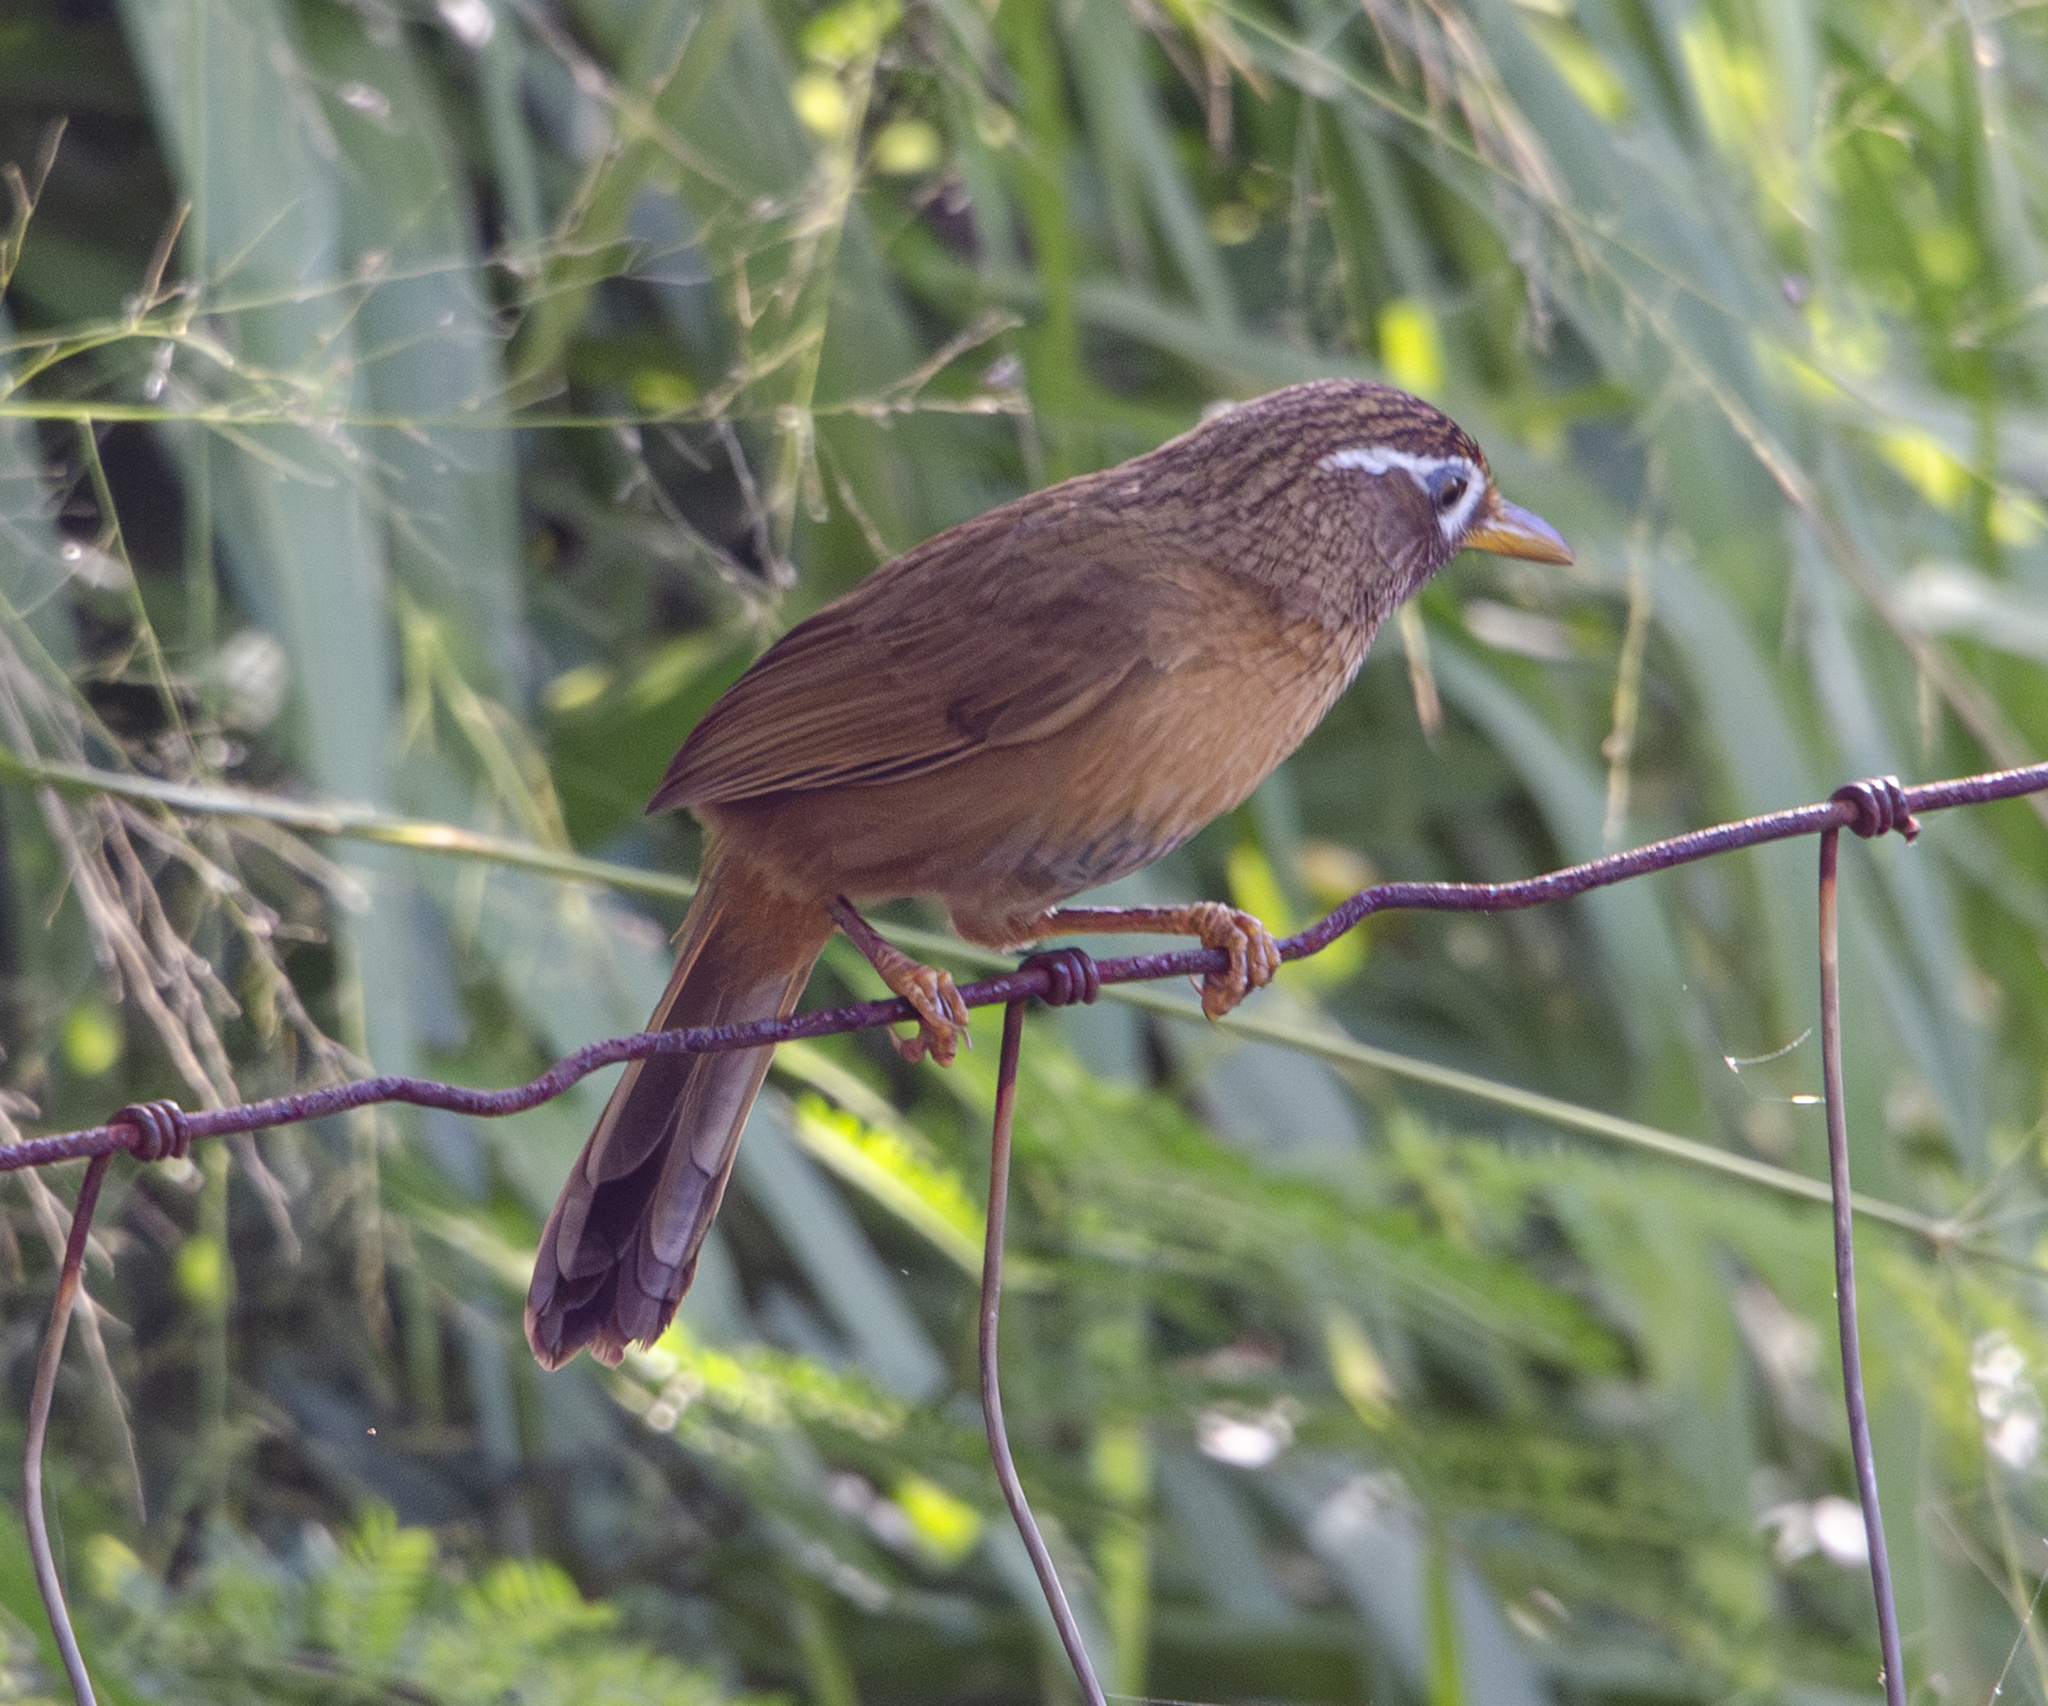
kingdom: Animalia
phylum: Chordata
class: Aves
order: Passeriformes
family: Leiothrichidae
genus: Garrulax
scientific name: Garrulax canorus
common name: Chinese hwamei
